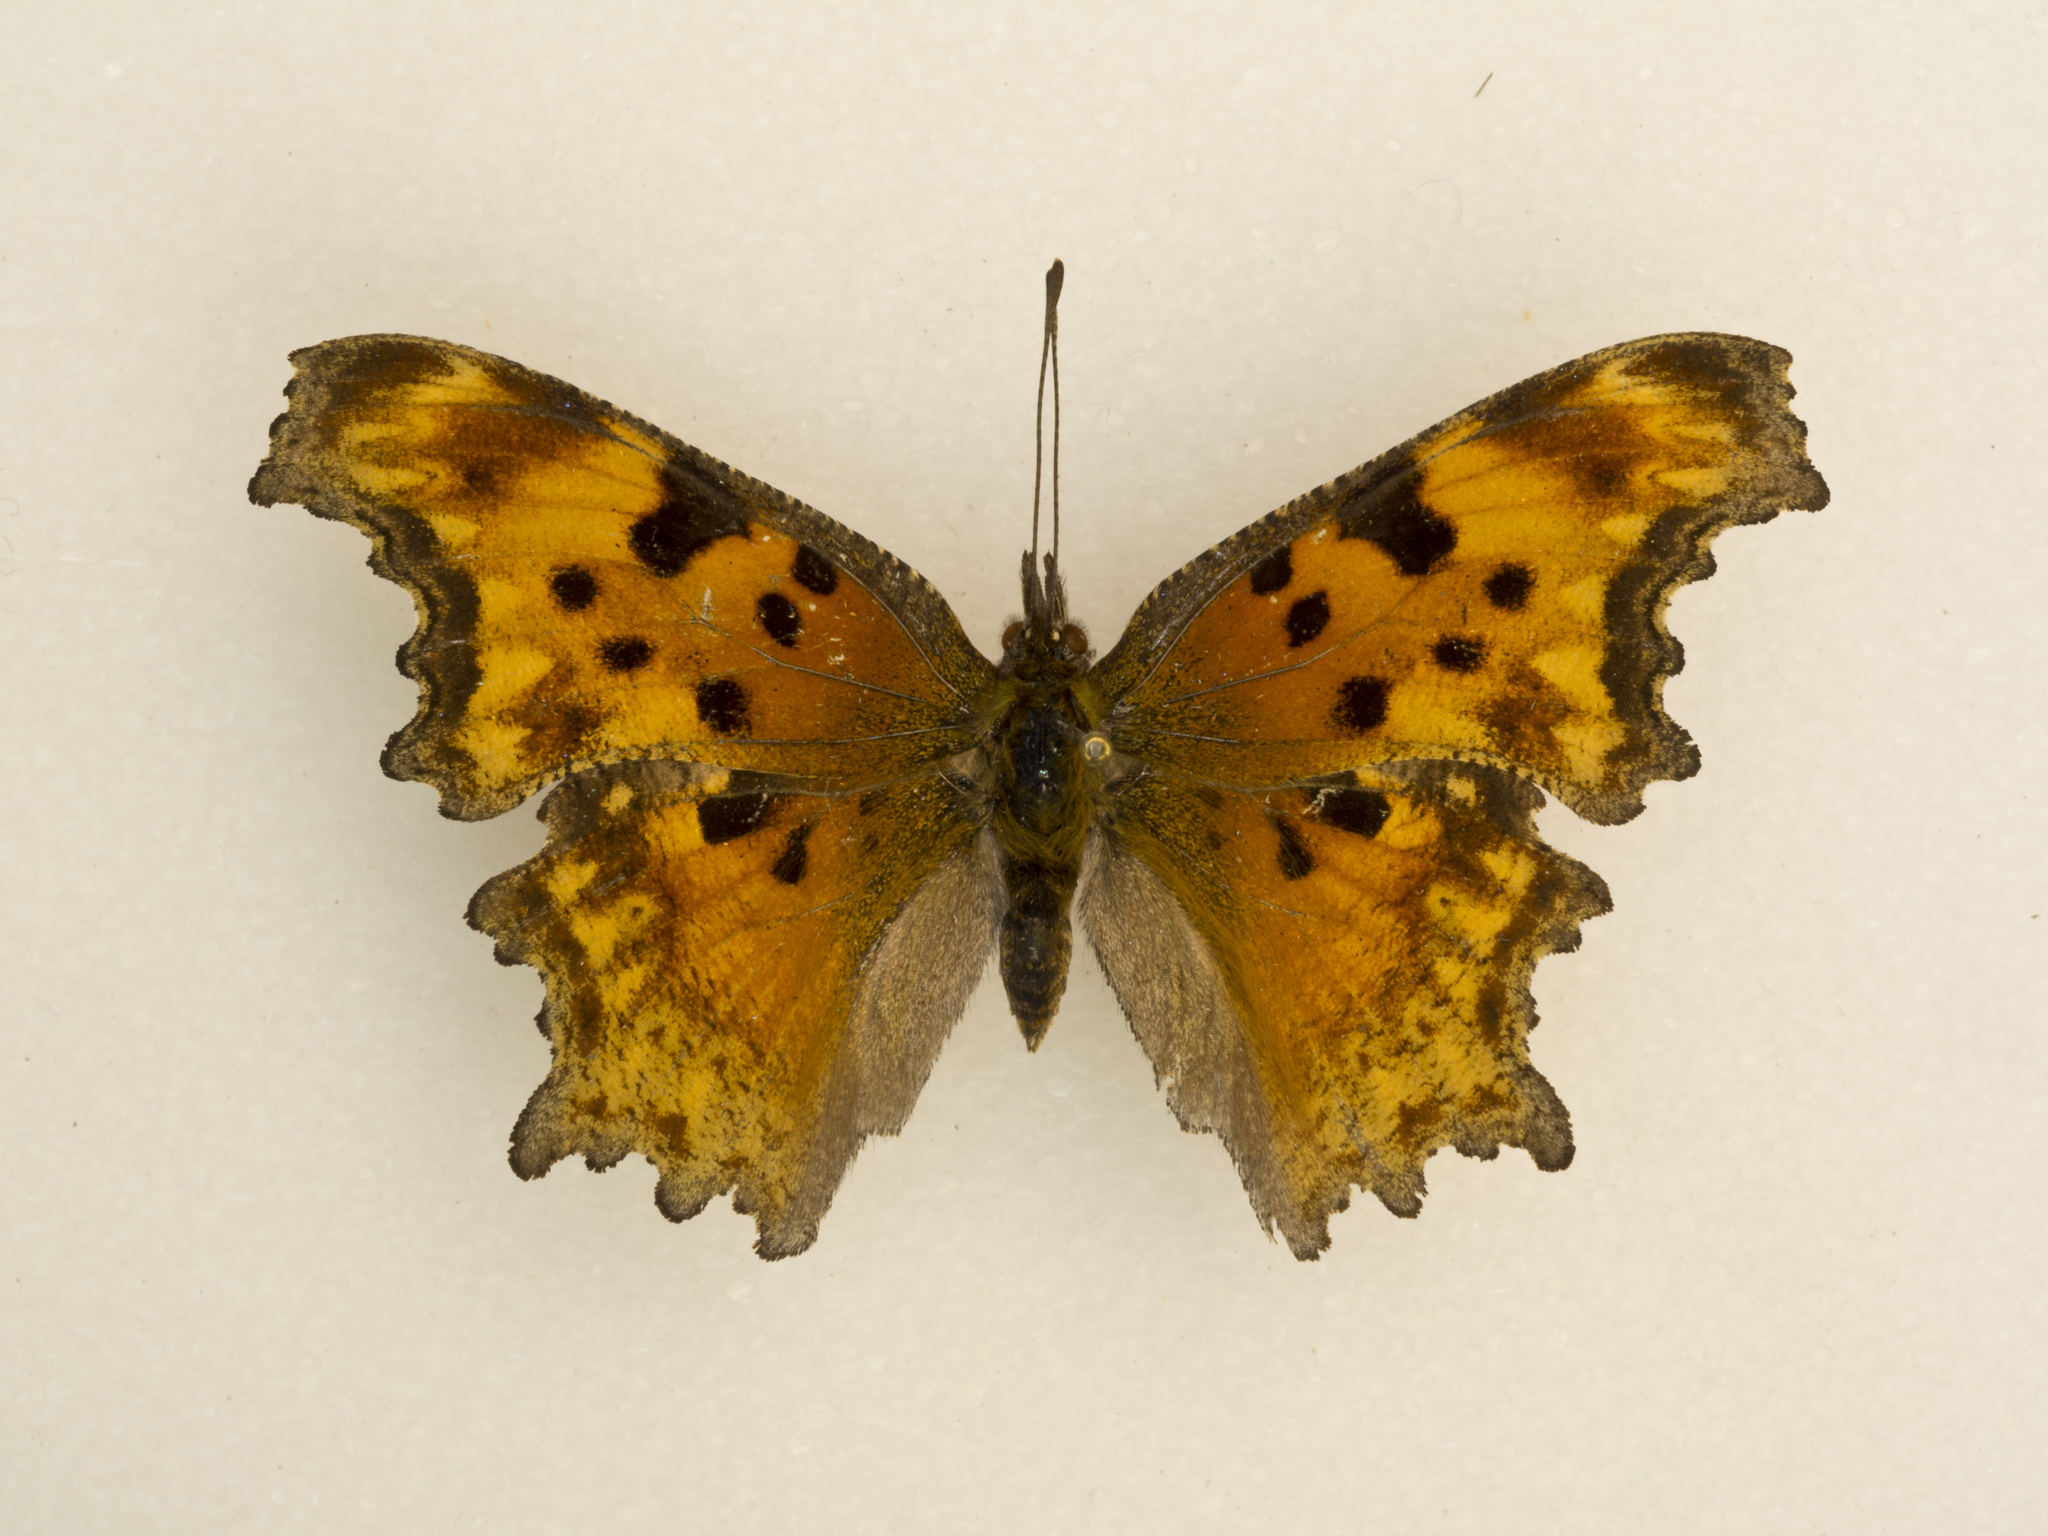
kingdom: Animalia
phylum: Arthropoda
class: Insecta
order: Lepidoptera
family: Nymphalidae
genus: Polygonia
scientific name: Polygonia gracilis
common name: Hoary comma
